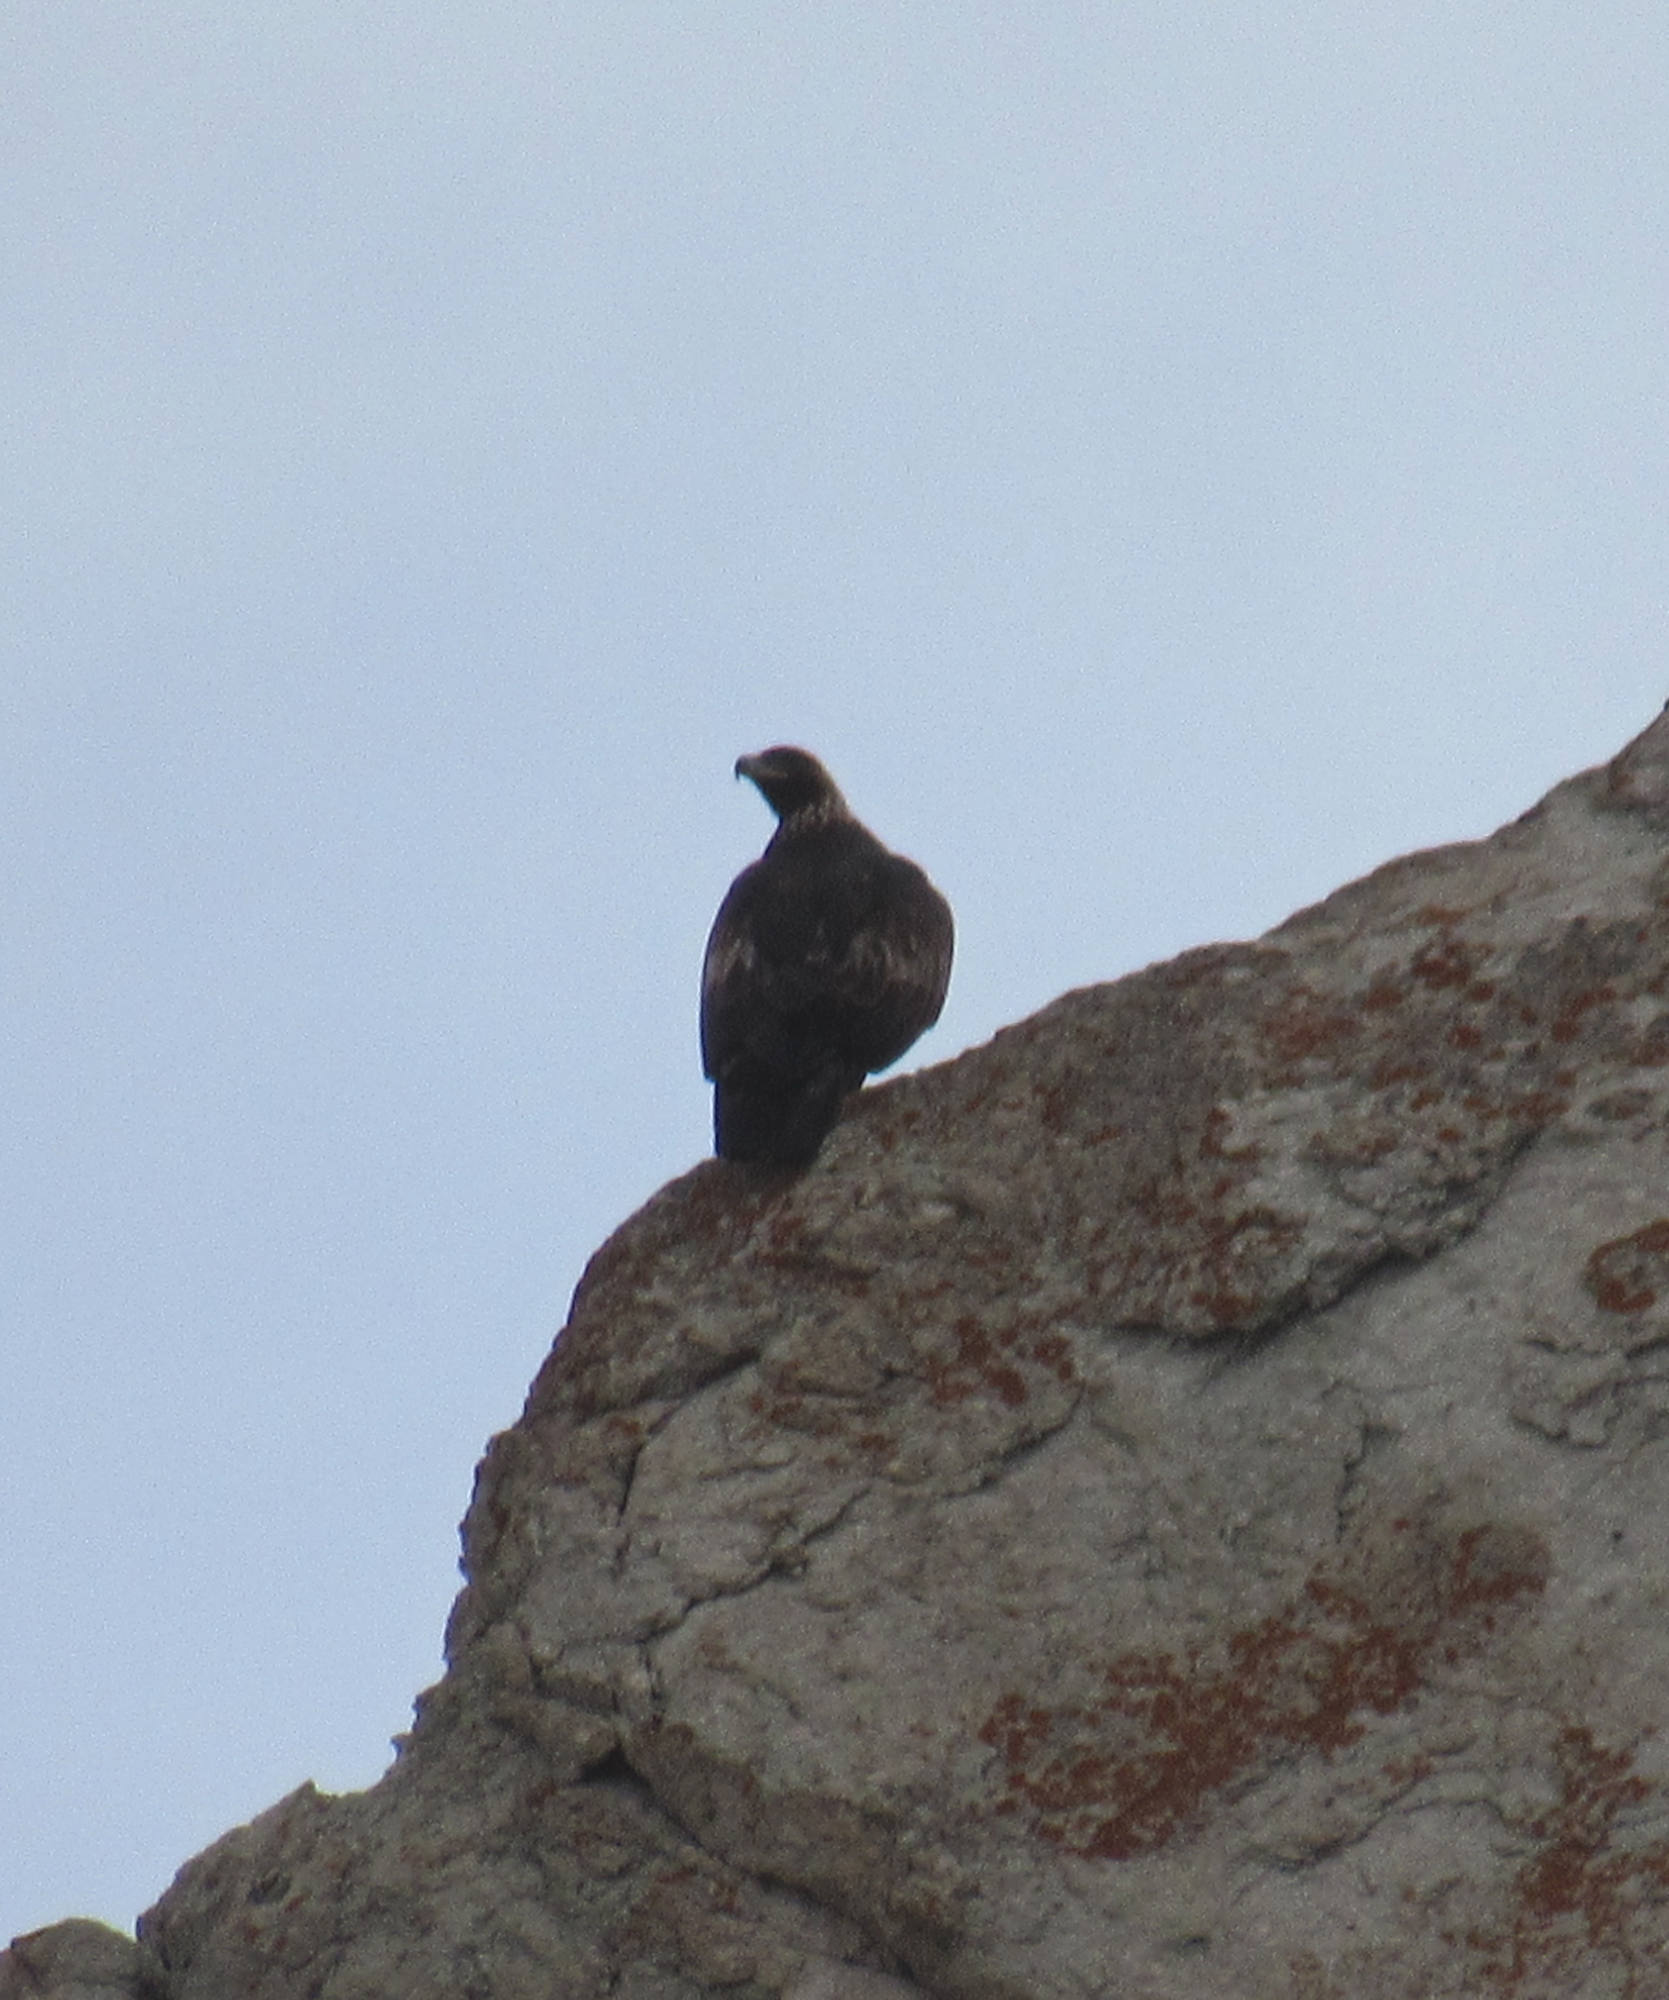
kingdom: Animalia
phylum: Chordata
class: Aves
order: Accipitriformes
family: Accipitridae
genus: Aquila
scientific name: Aquila chrysaetos
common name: Golden eagle
